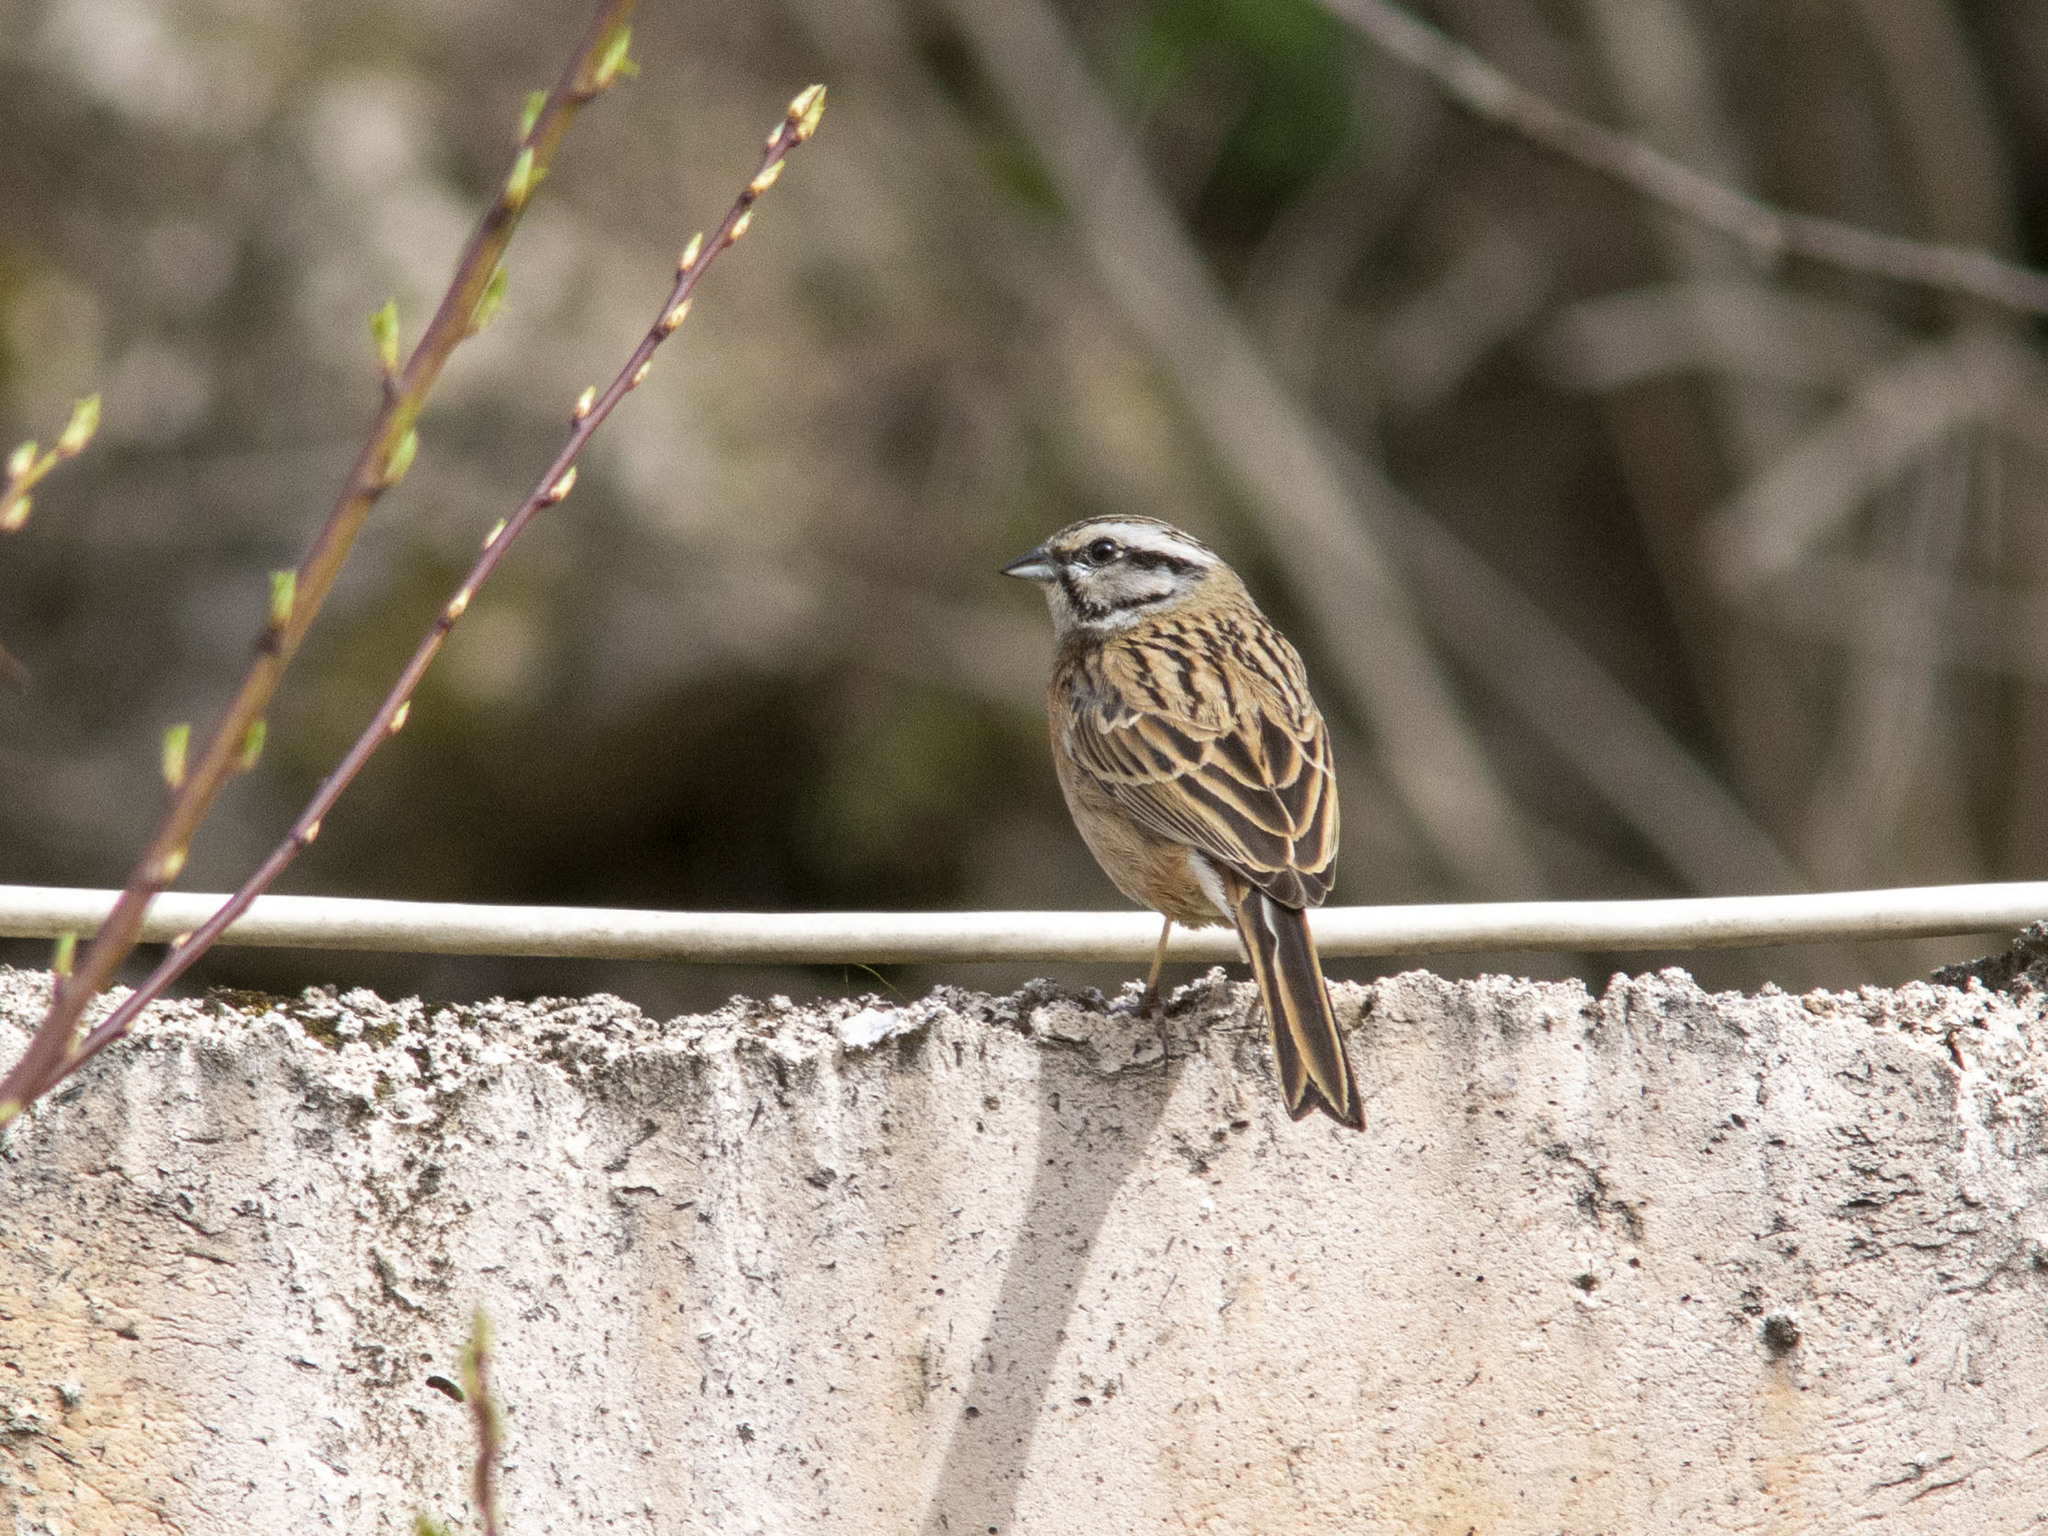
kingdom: Animalia
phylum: Chordata
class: Aves
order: Passeriformes
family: Emberizidae
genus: Emberiza
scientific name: Emberiza cia
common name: Rock bunting
